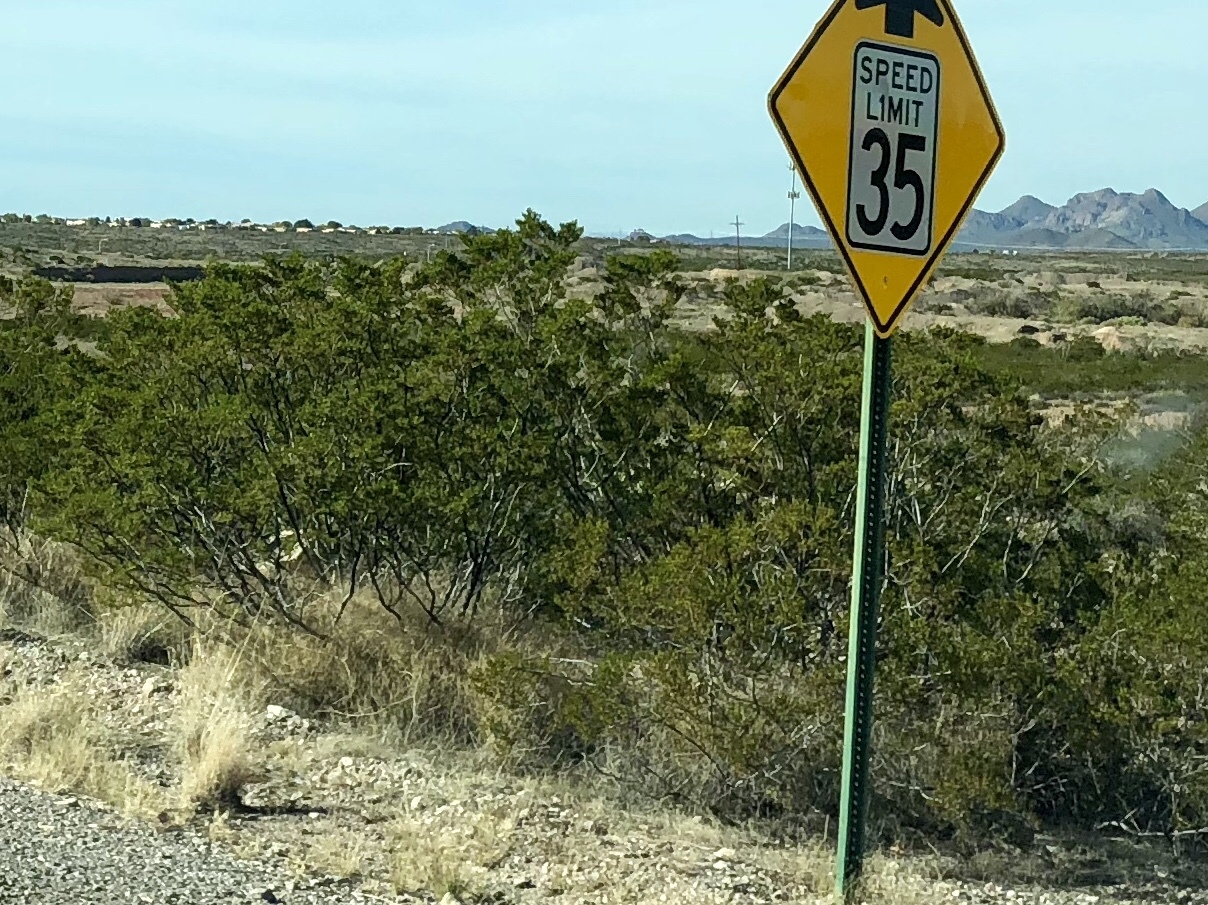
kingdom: Plantae
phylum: Tracheophyta
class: Magnoliopsida
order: Zygophyllales
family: Zygophyllaceae
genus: Larrea
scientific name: Larrea tridentata
